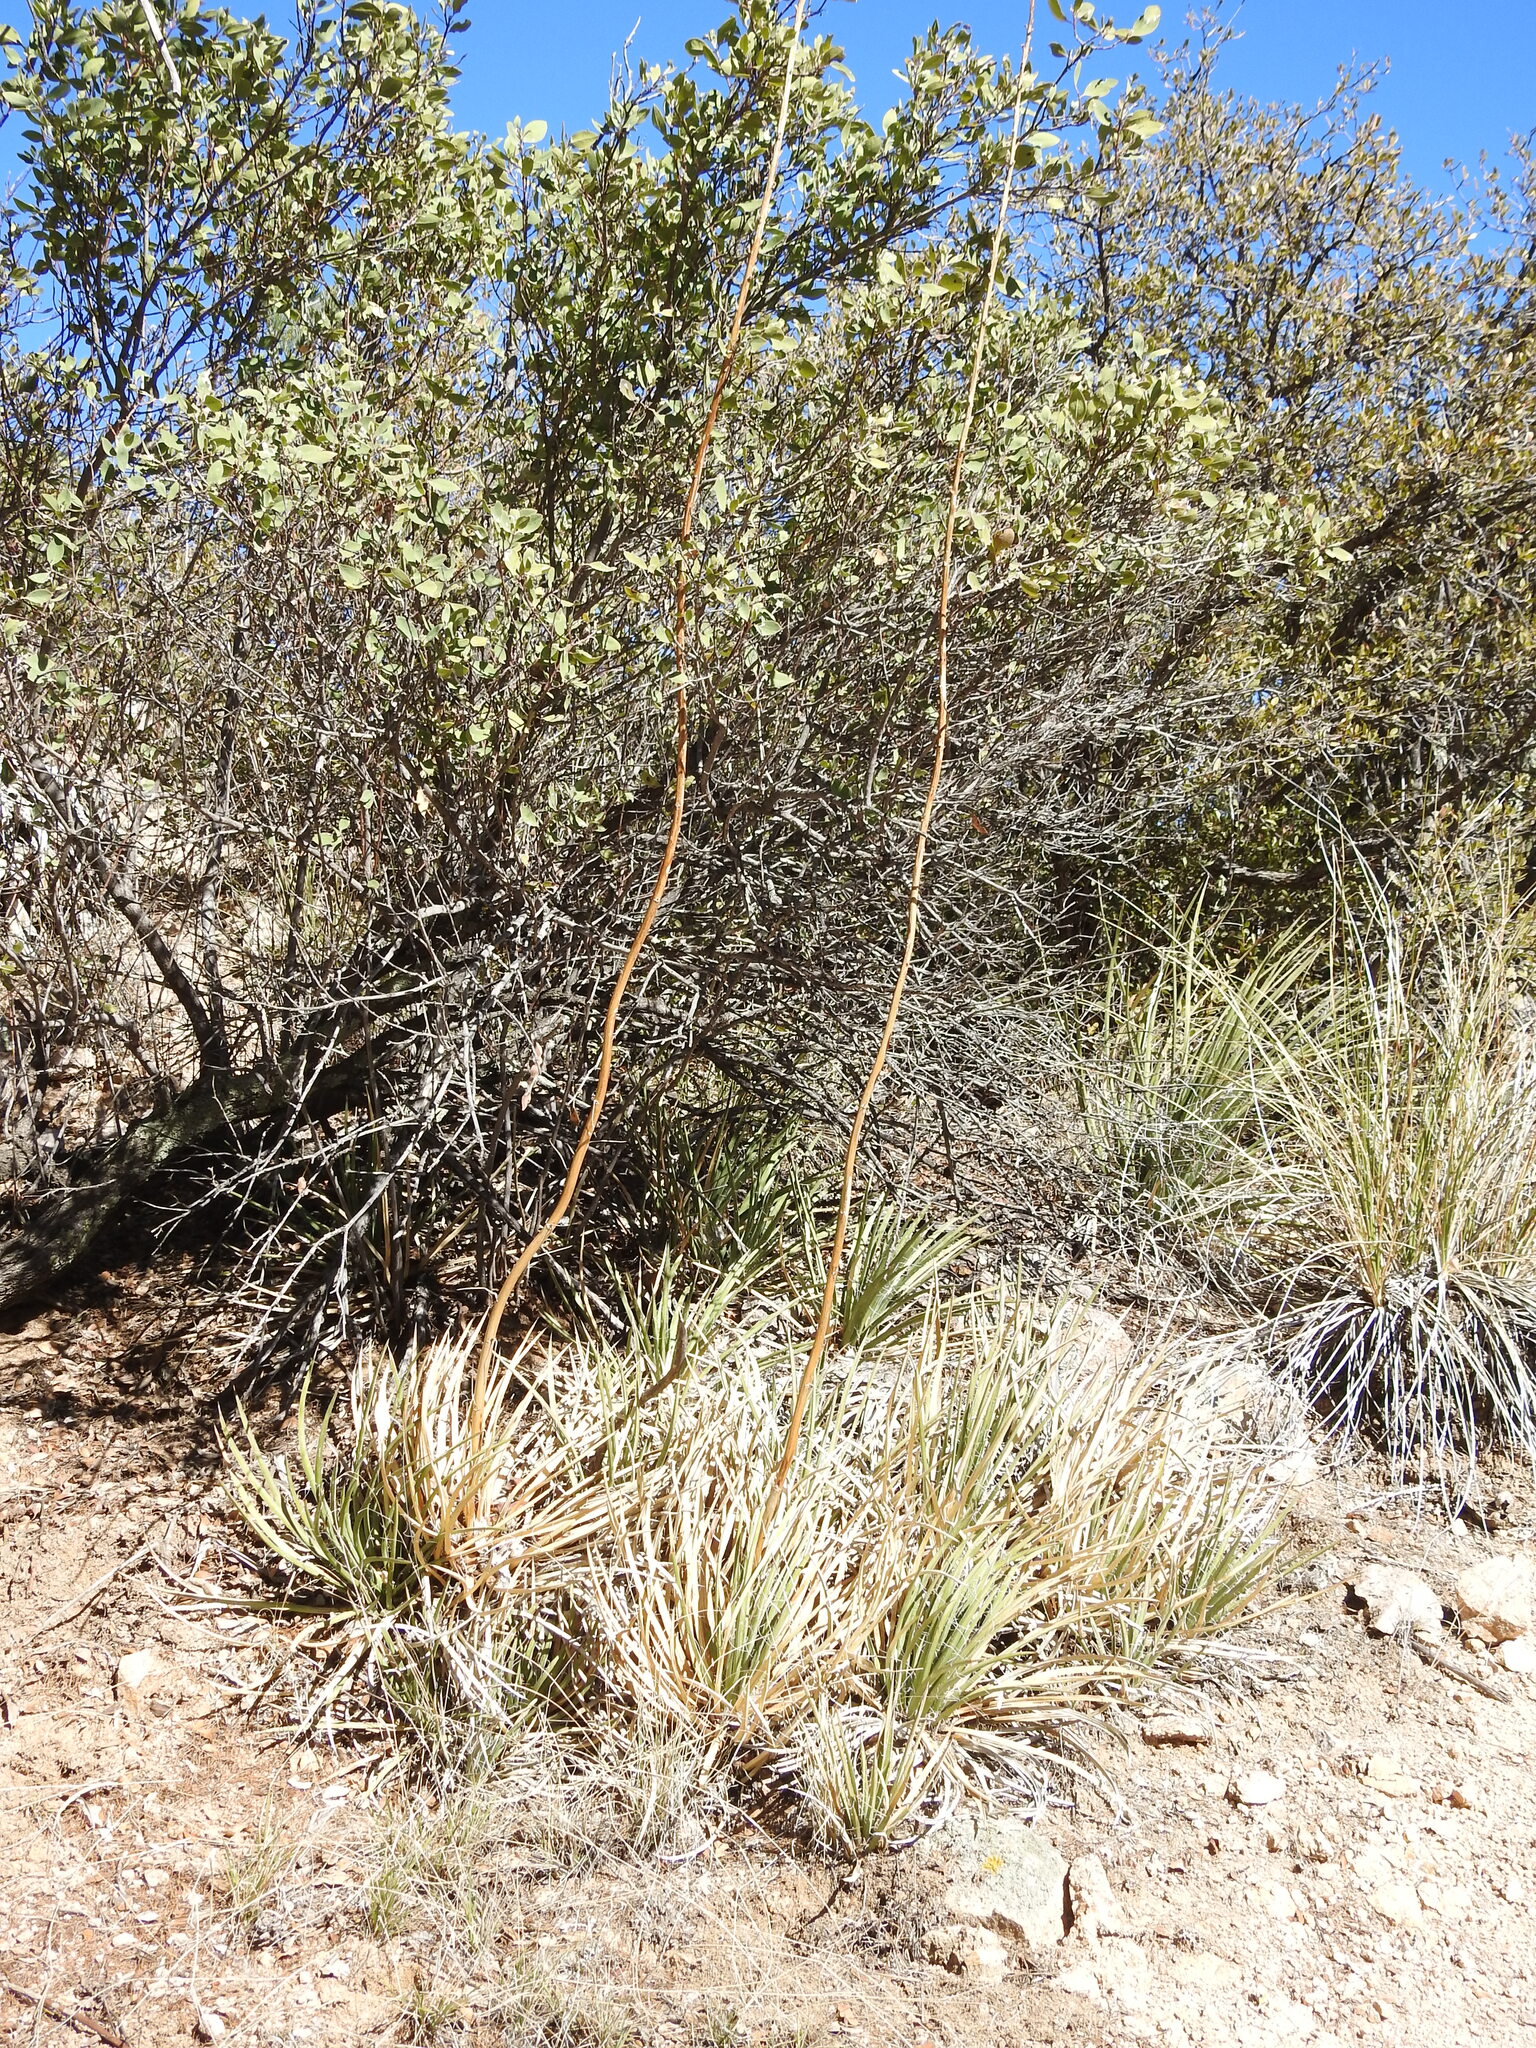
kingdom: Plantae
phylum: Tracheophyta
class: Liliopsida
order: Asparagales
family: Asparagaceae
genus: Agave
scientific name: Agave schottii
